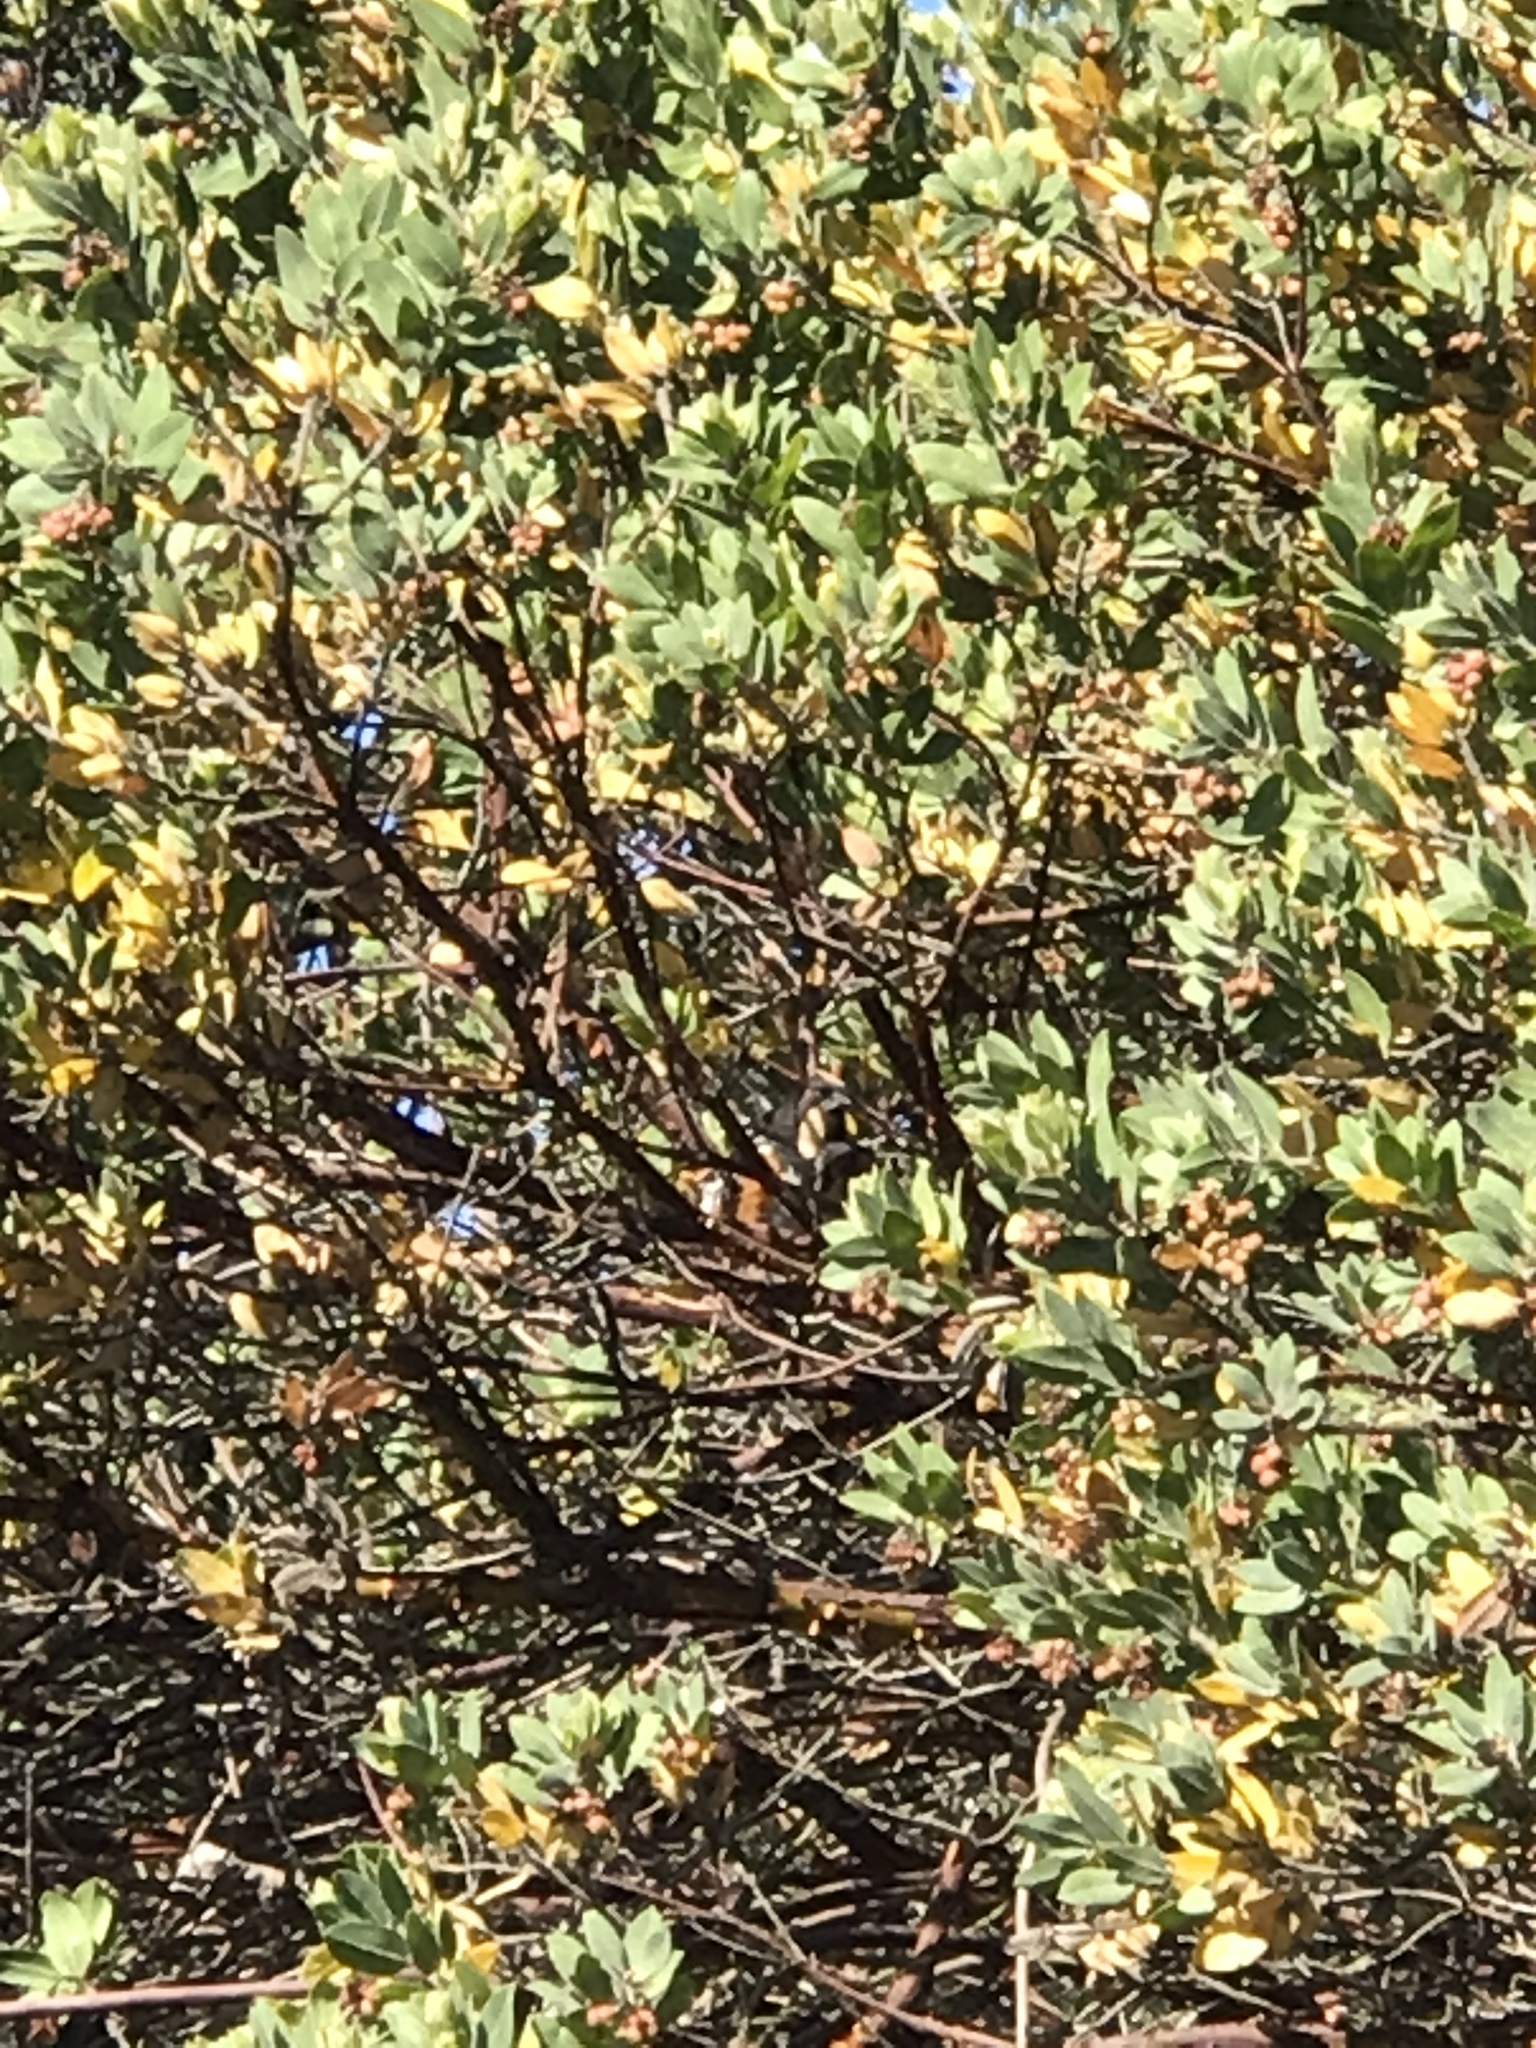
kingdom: Animalia
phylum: Chordata
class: Aves
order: Passeriformes
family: Passerellidae
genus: Pipilo
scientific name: Pipilo maculatus
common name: Spotted towhee
